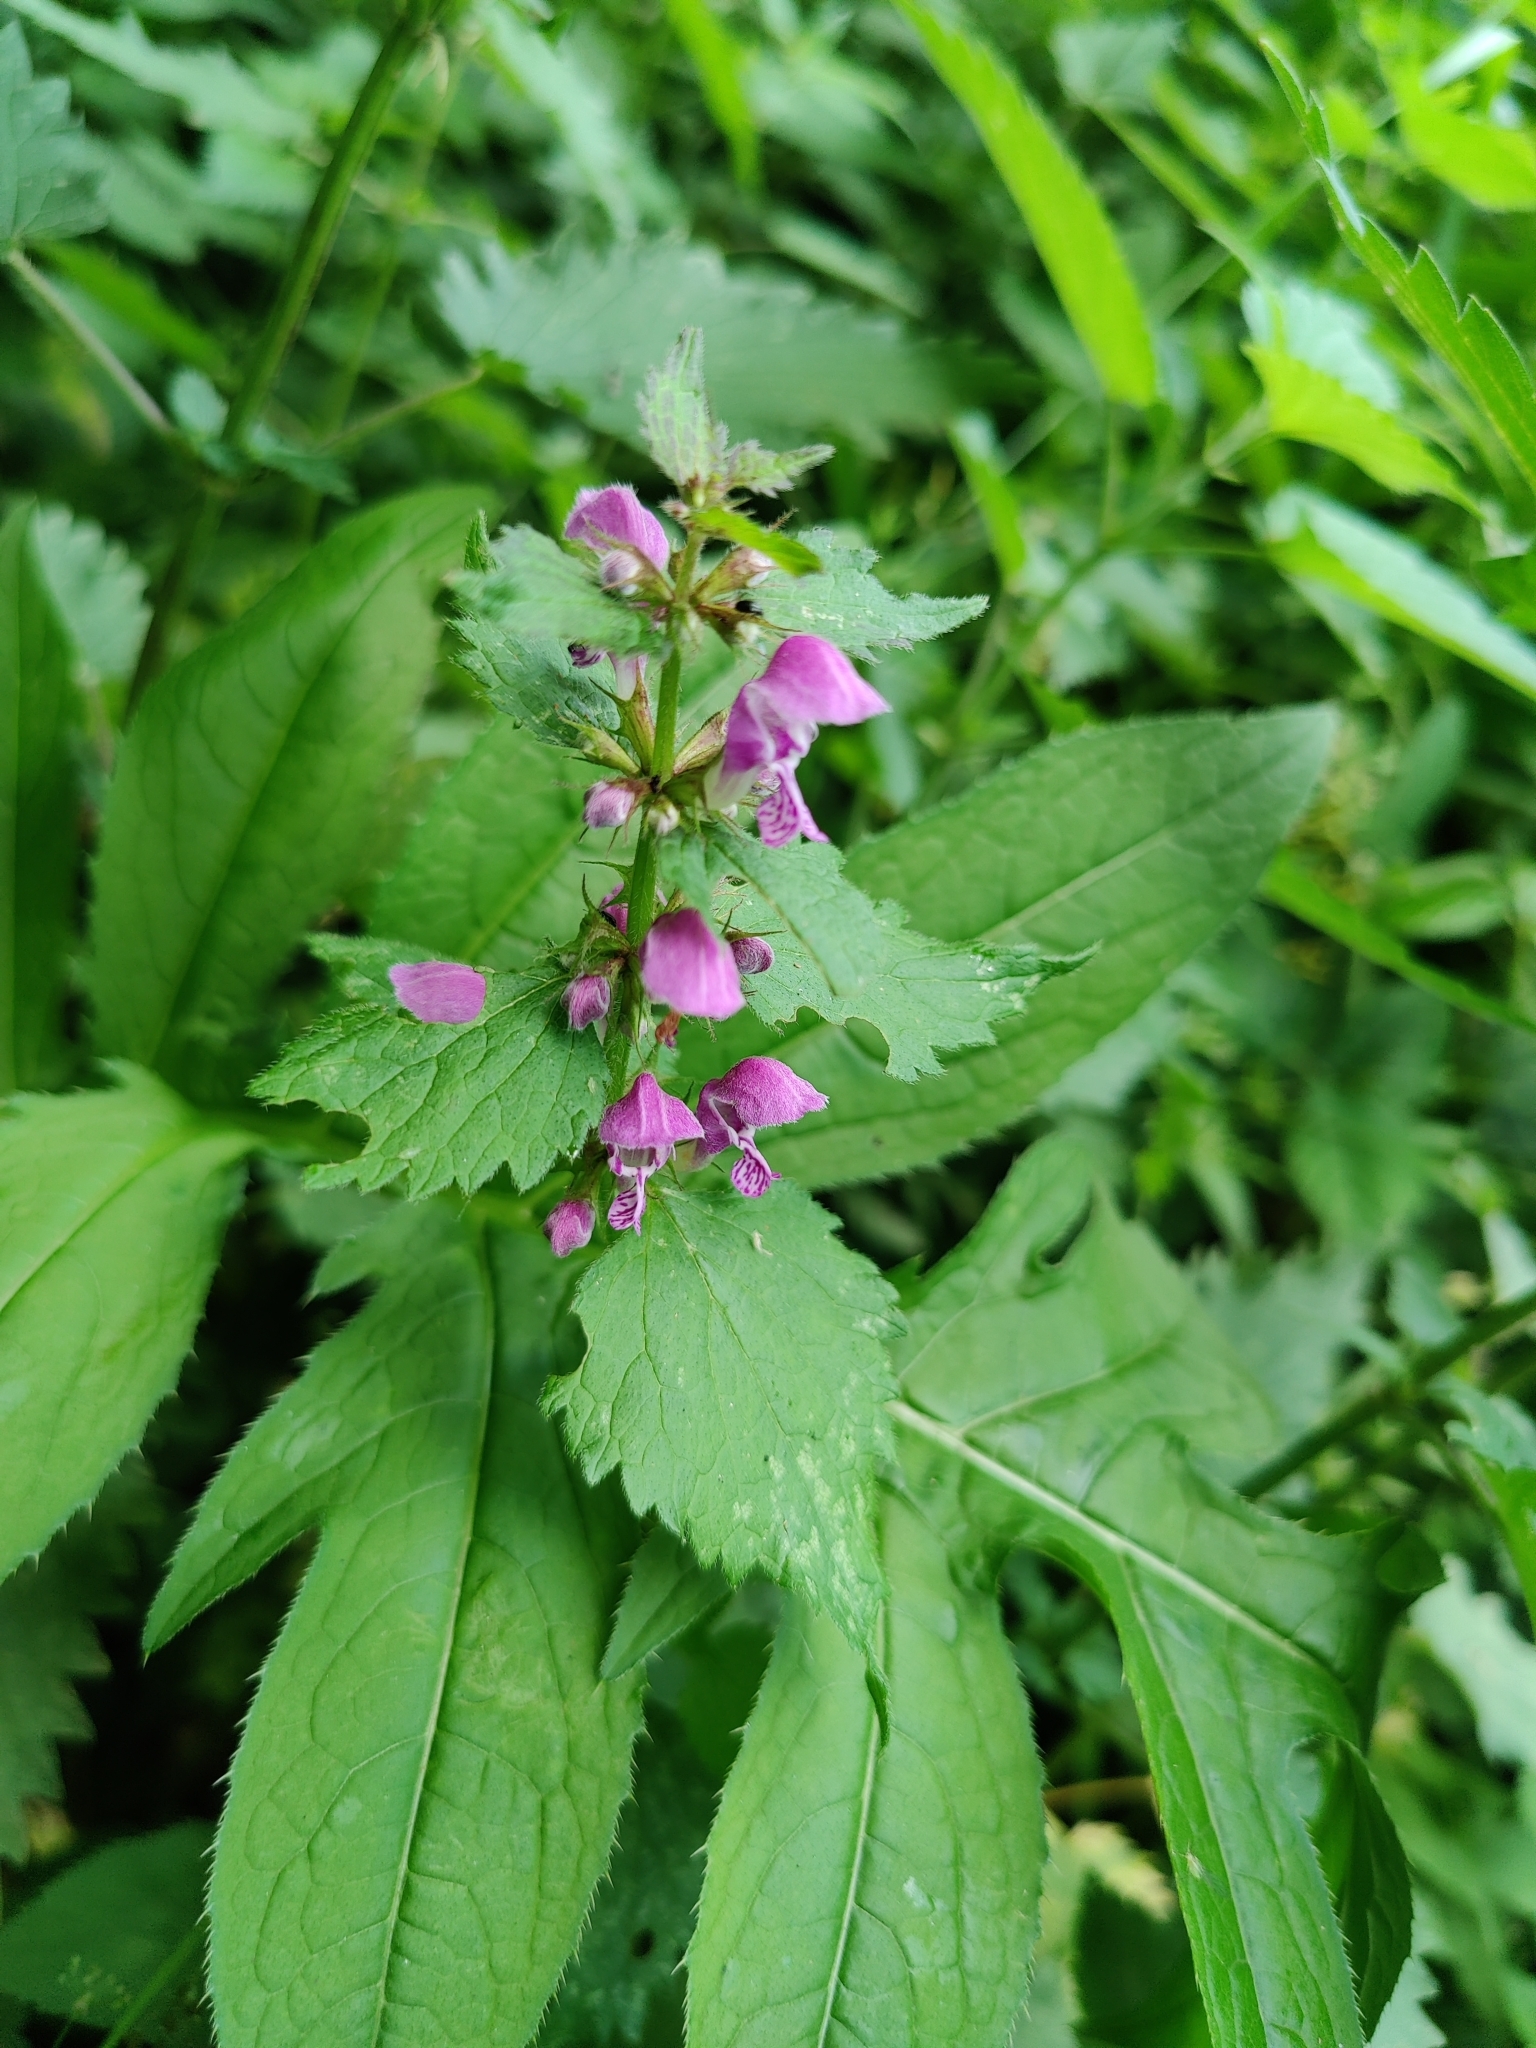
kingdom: Plantae
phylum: Tracheophyta
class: Magnoliopsida
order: Lamiales
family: Lamiaceae
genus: Lamium
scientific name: Lamium maculatum
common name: Spotted dead-nettle
